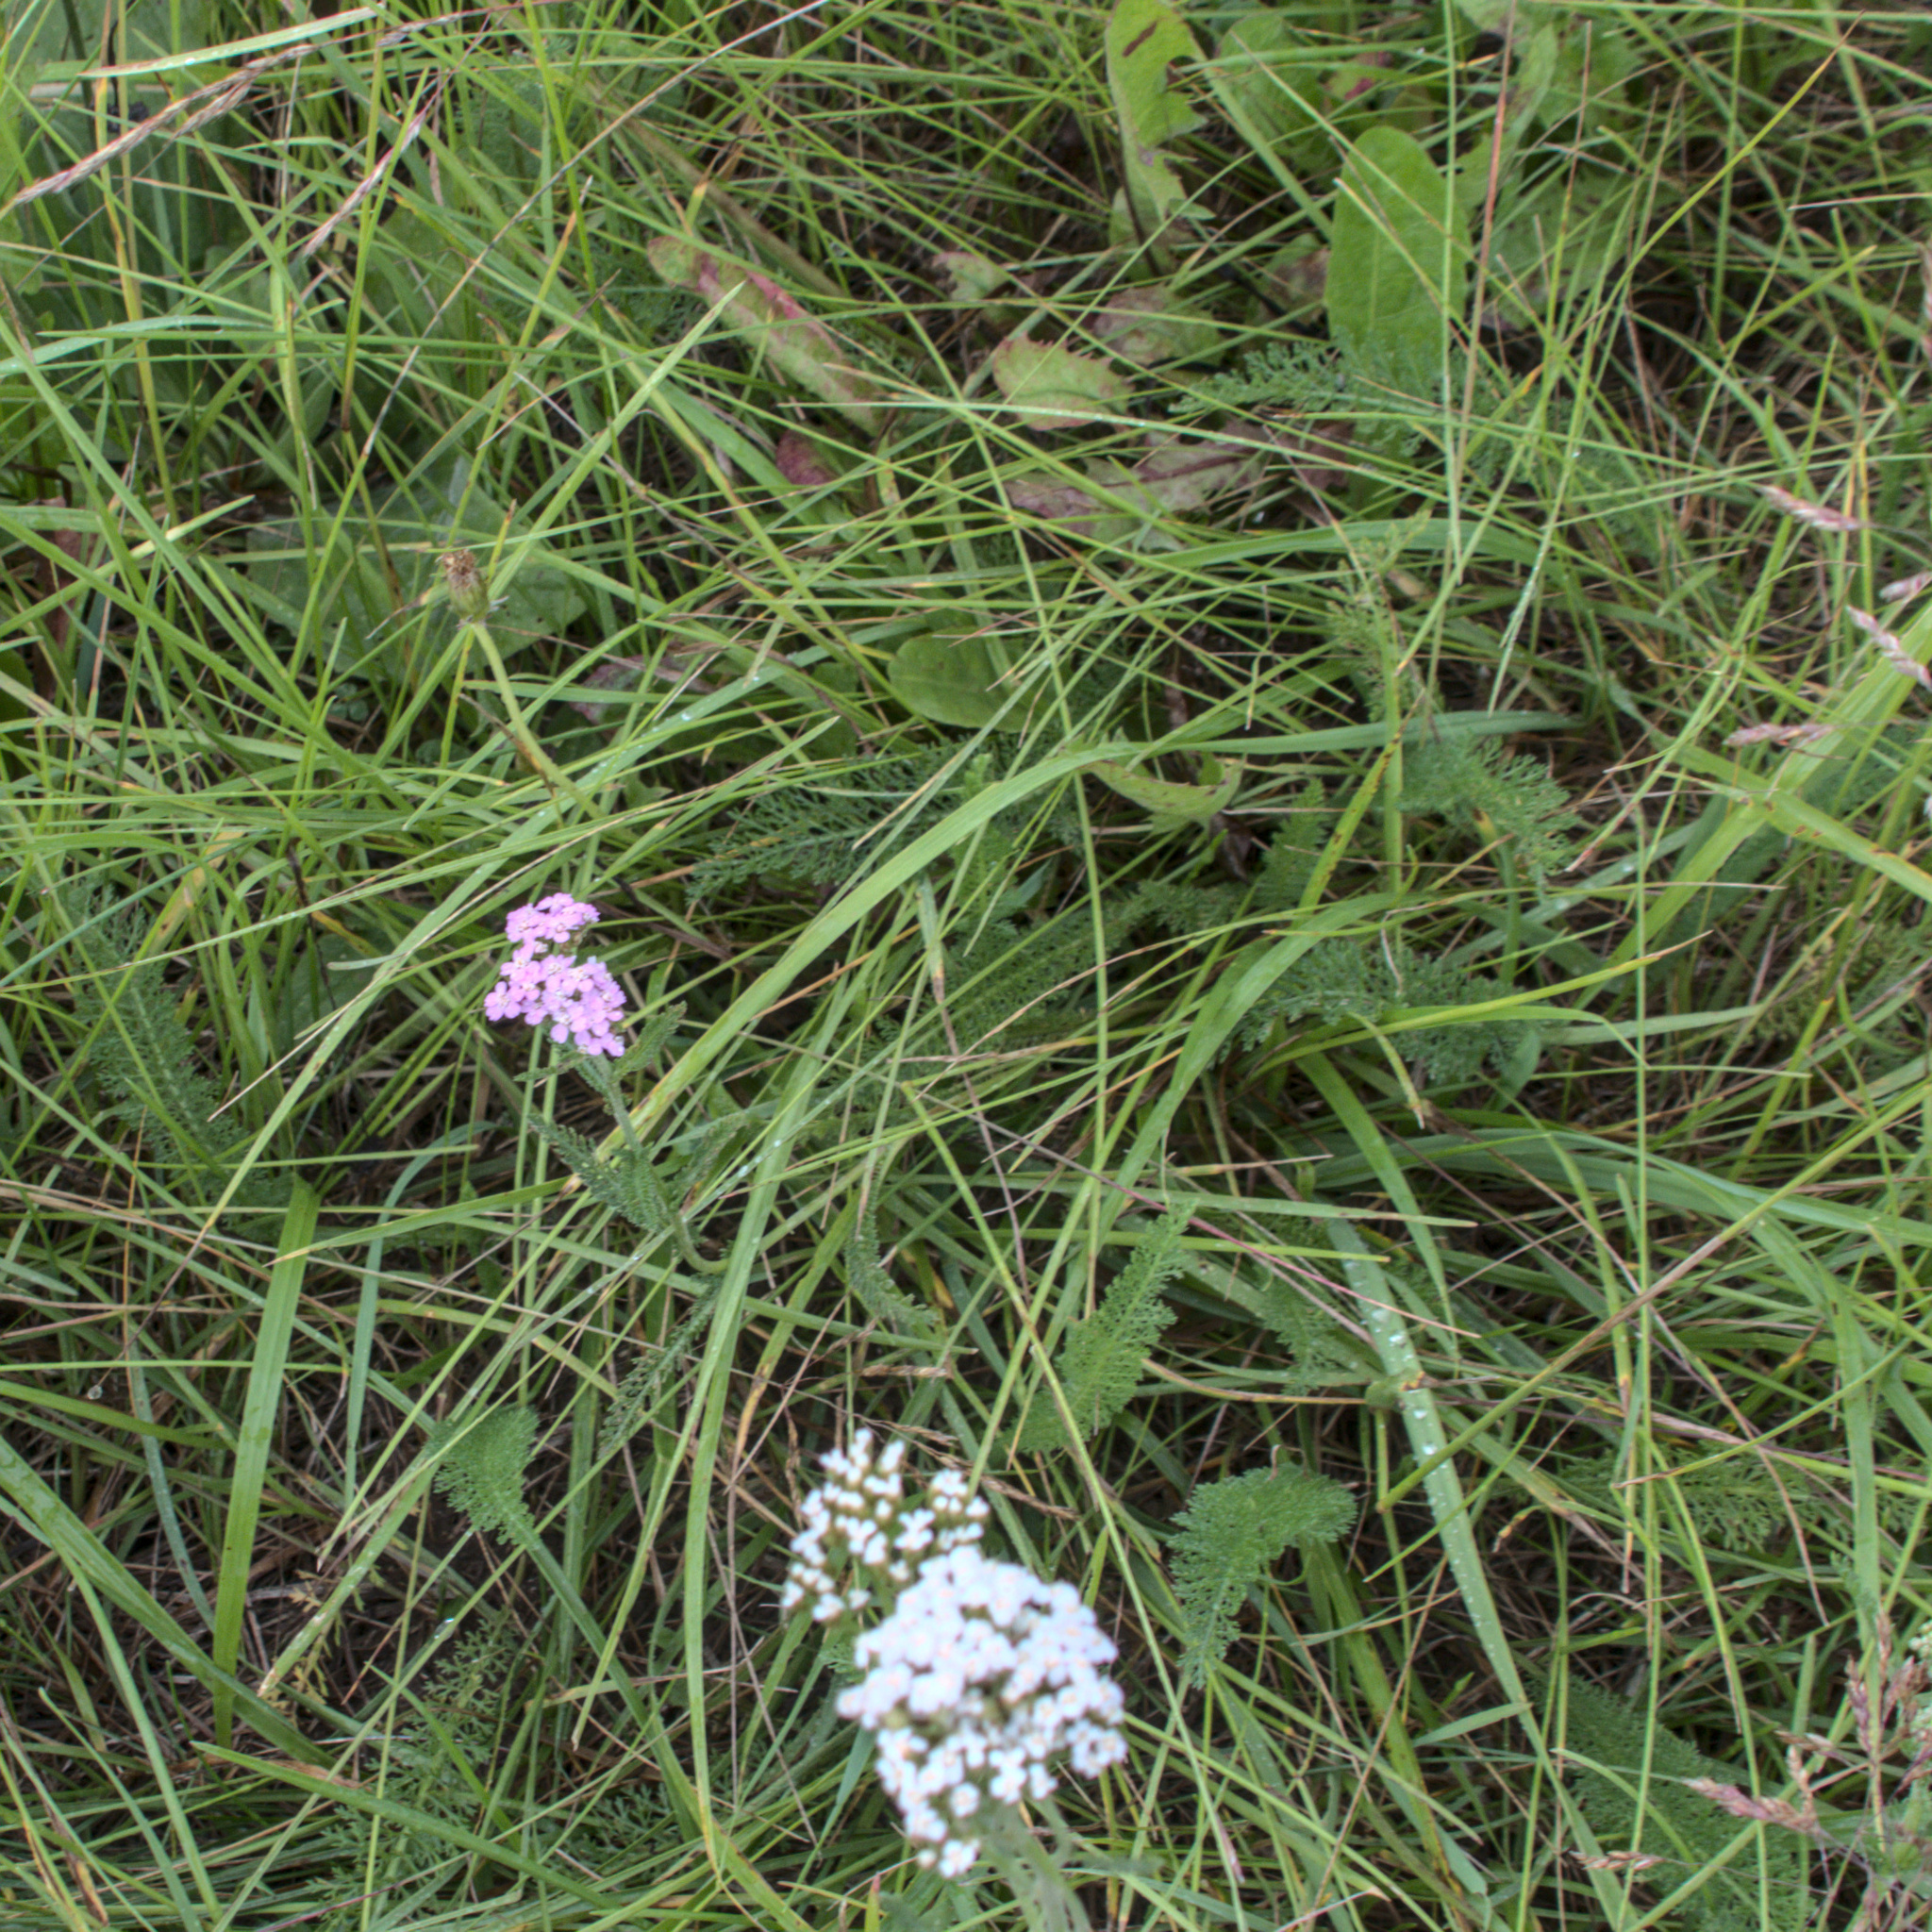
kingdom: Plantae
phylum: Tracheophyta
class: Magnoliopsida
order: Asterales
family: Asteraceae
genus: Achillea
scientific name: Achillea asiatica
